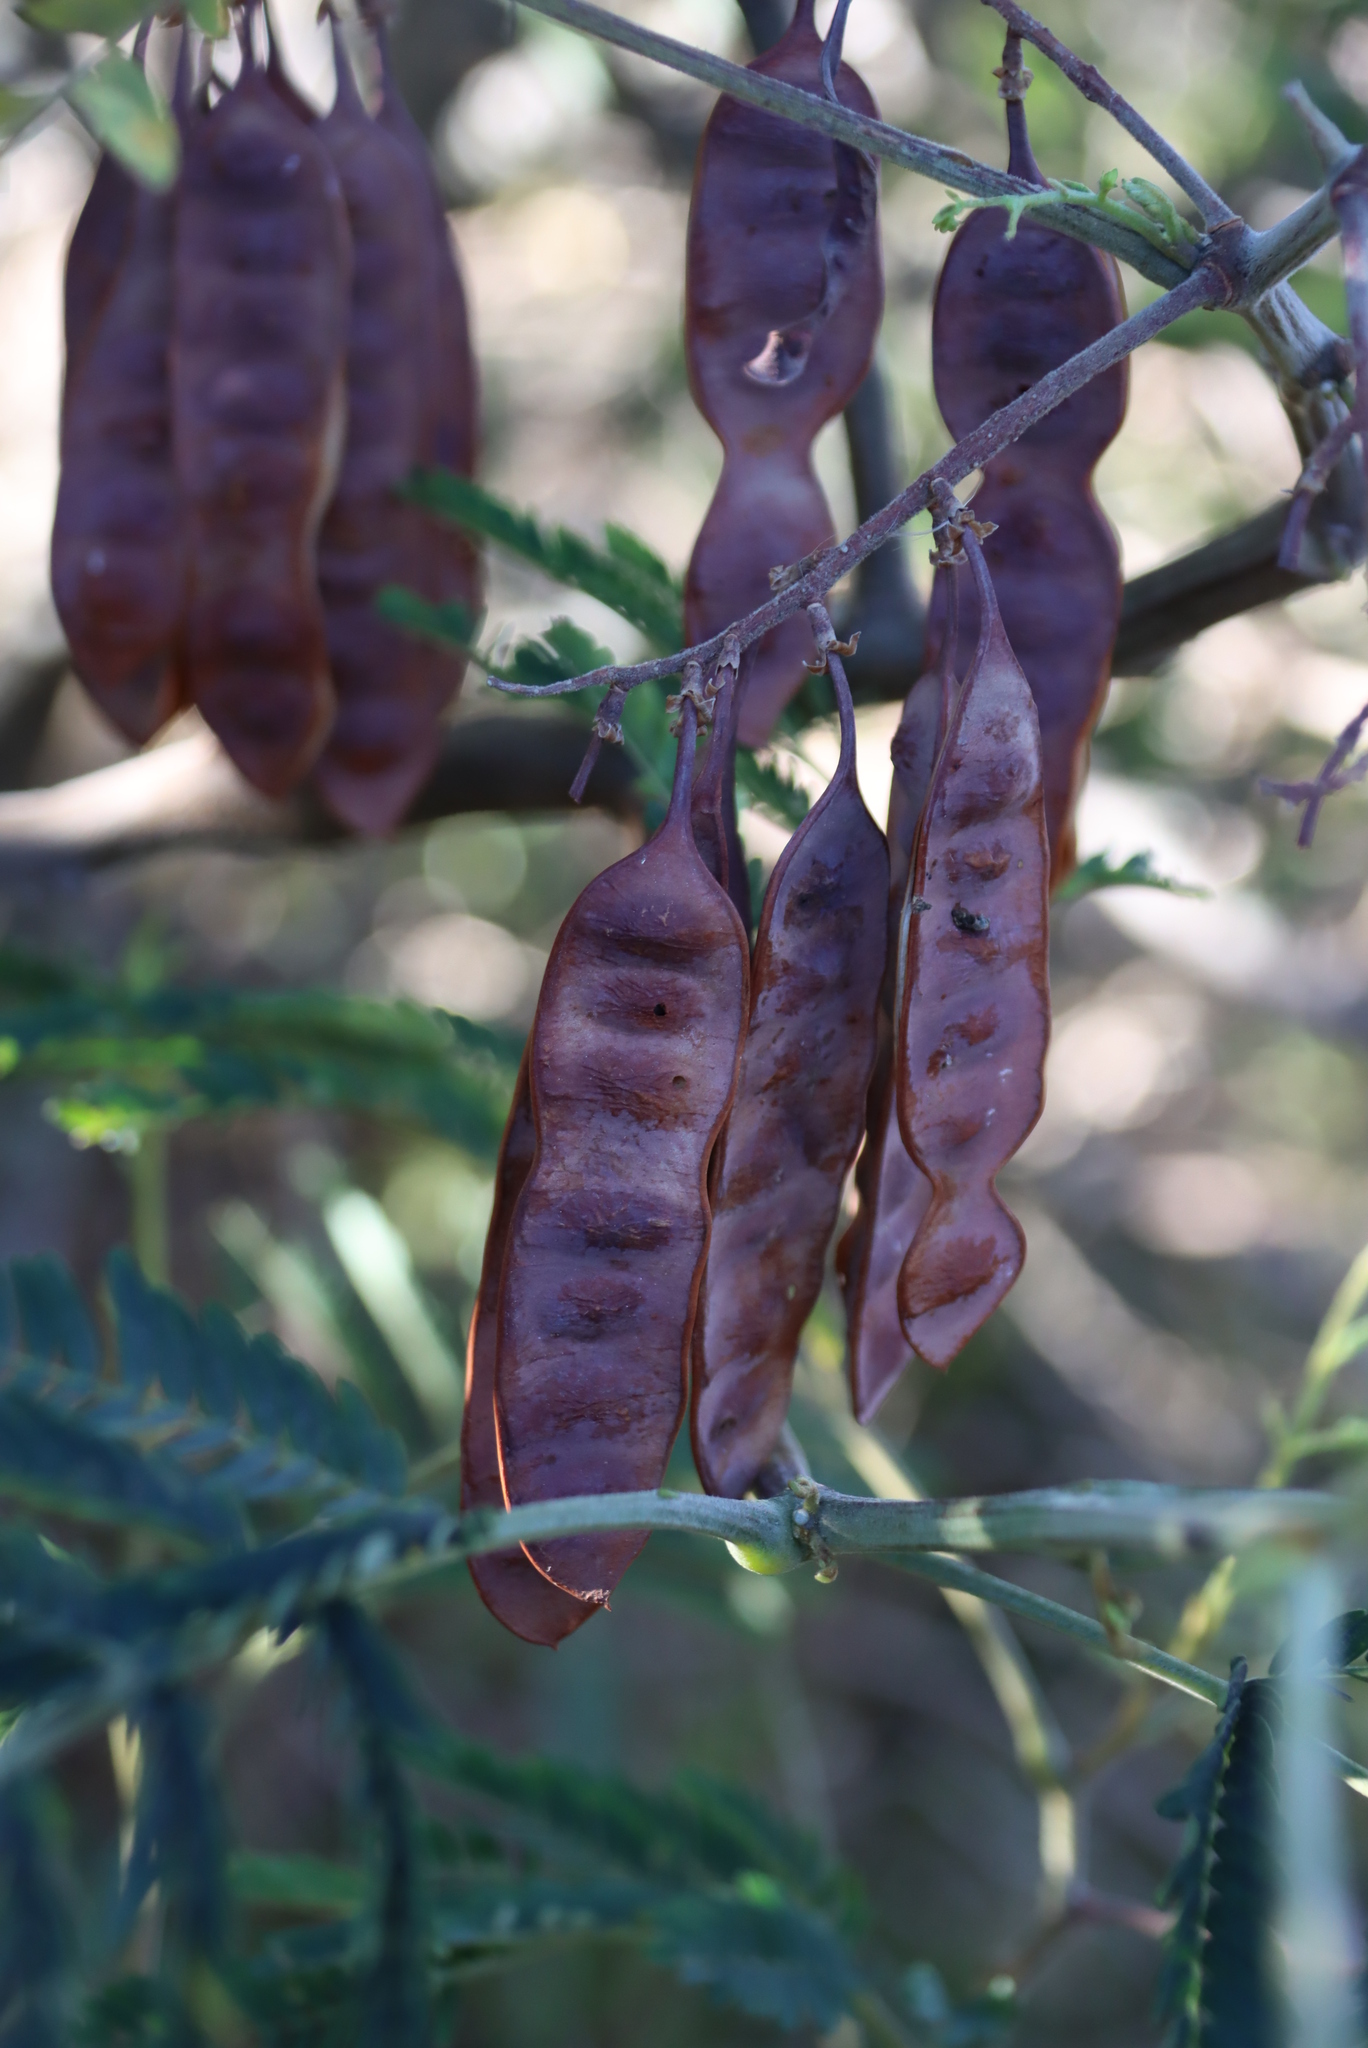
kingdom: Plantae
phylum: Tracheophyta
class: Magnoliopsida
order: Fabales
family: Fabaceae
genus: Paraserianthes
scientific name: Paraserianthes lophantha
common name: Plume albizia
